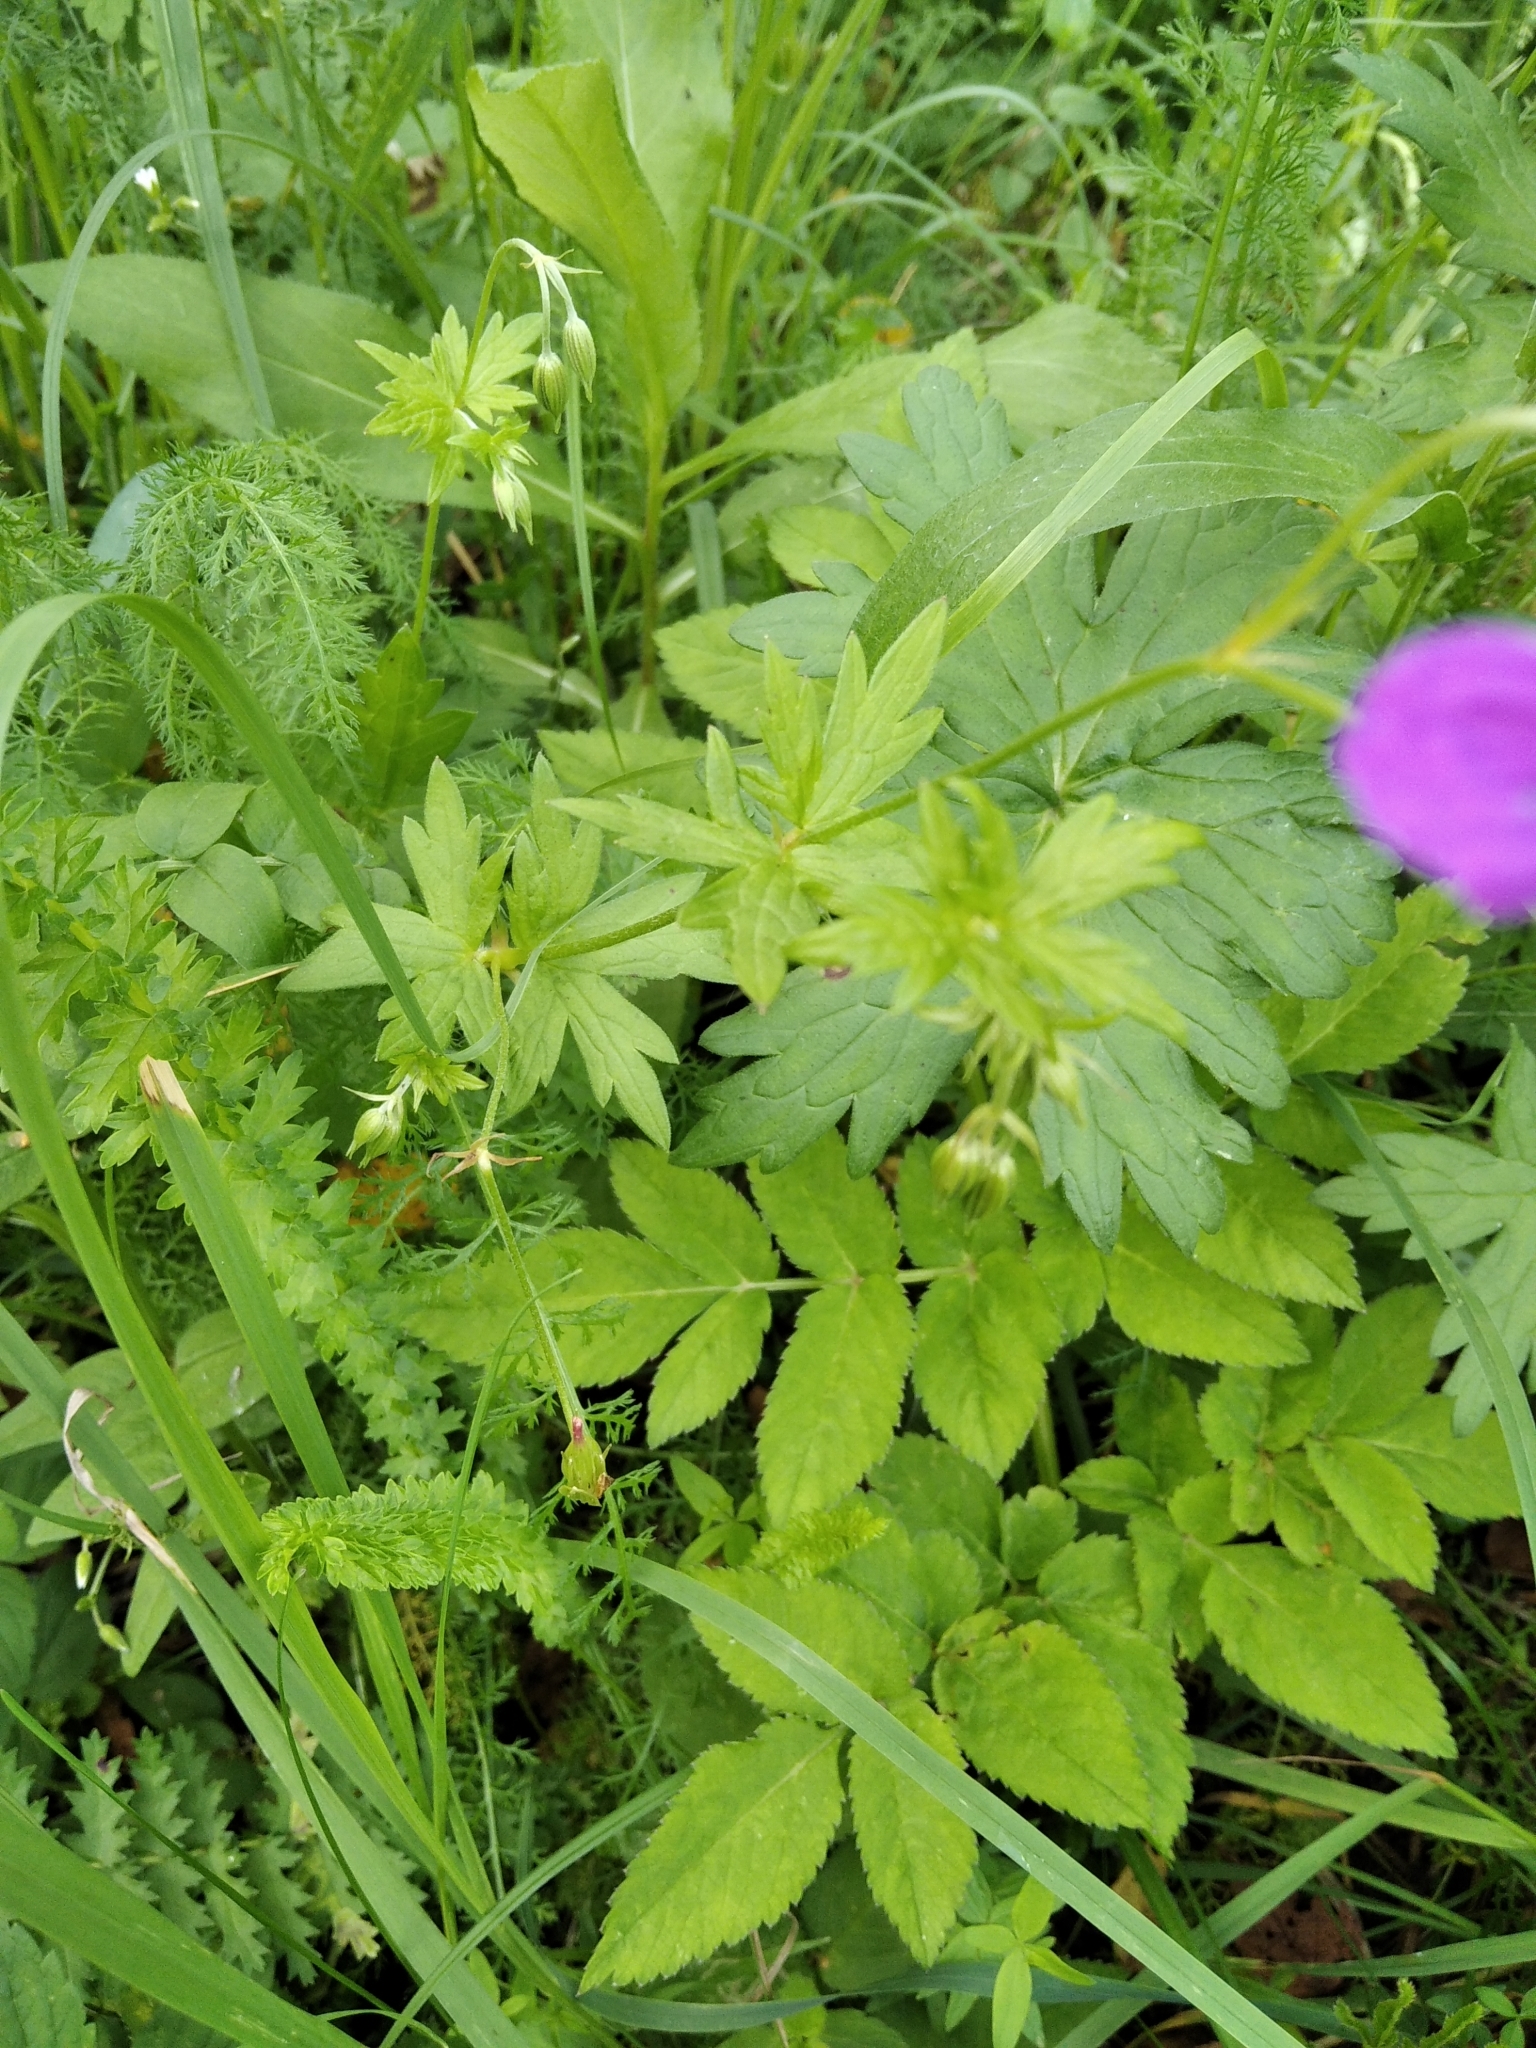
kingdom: Plantae
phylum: Tracheophyta
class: Magnoliopsida
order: Geraniales
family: Geraniaceae
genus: Geranium
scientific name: Geranium palustre
